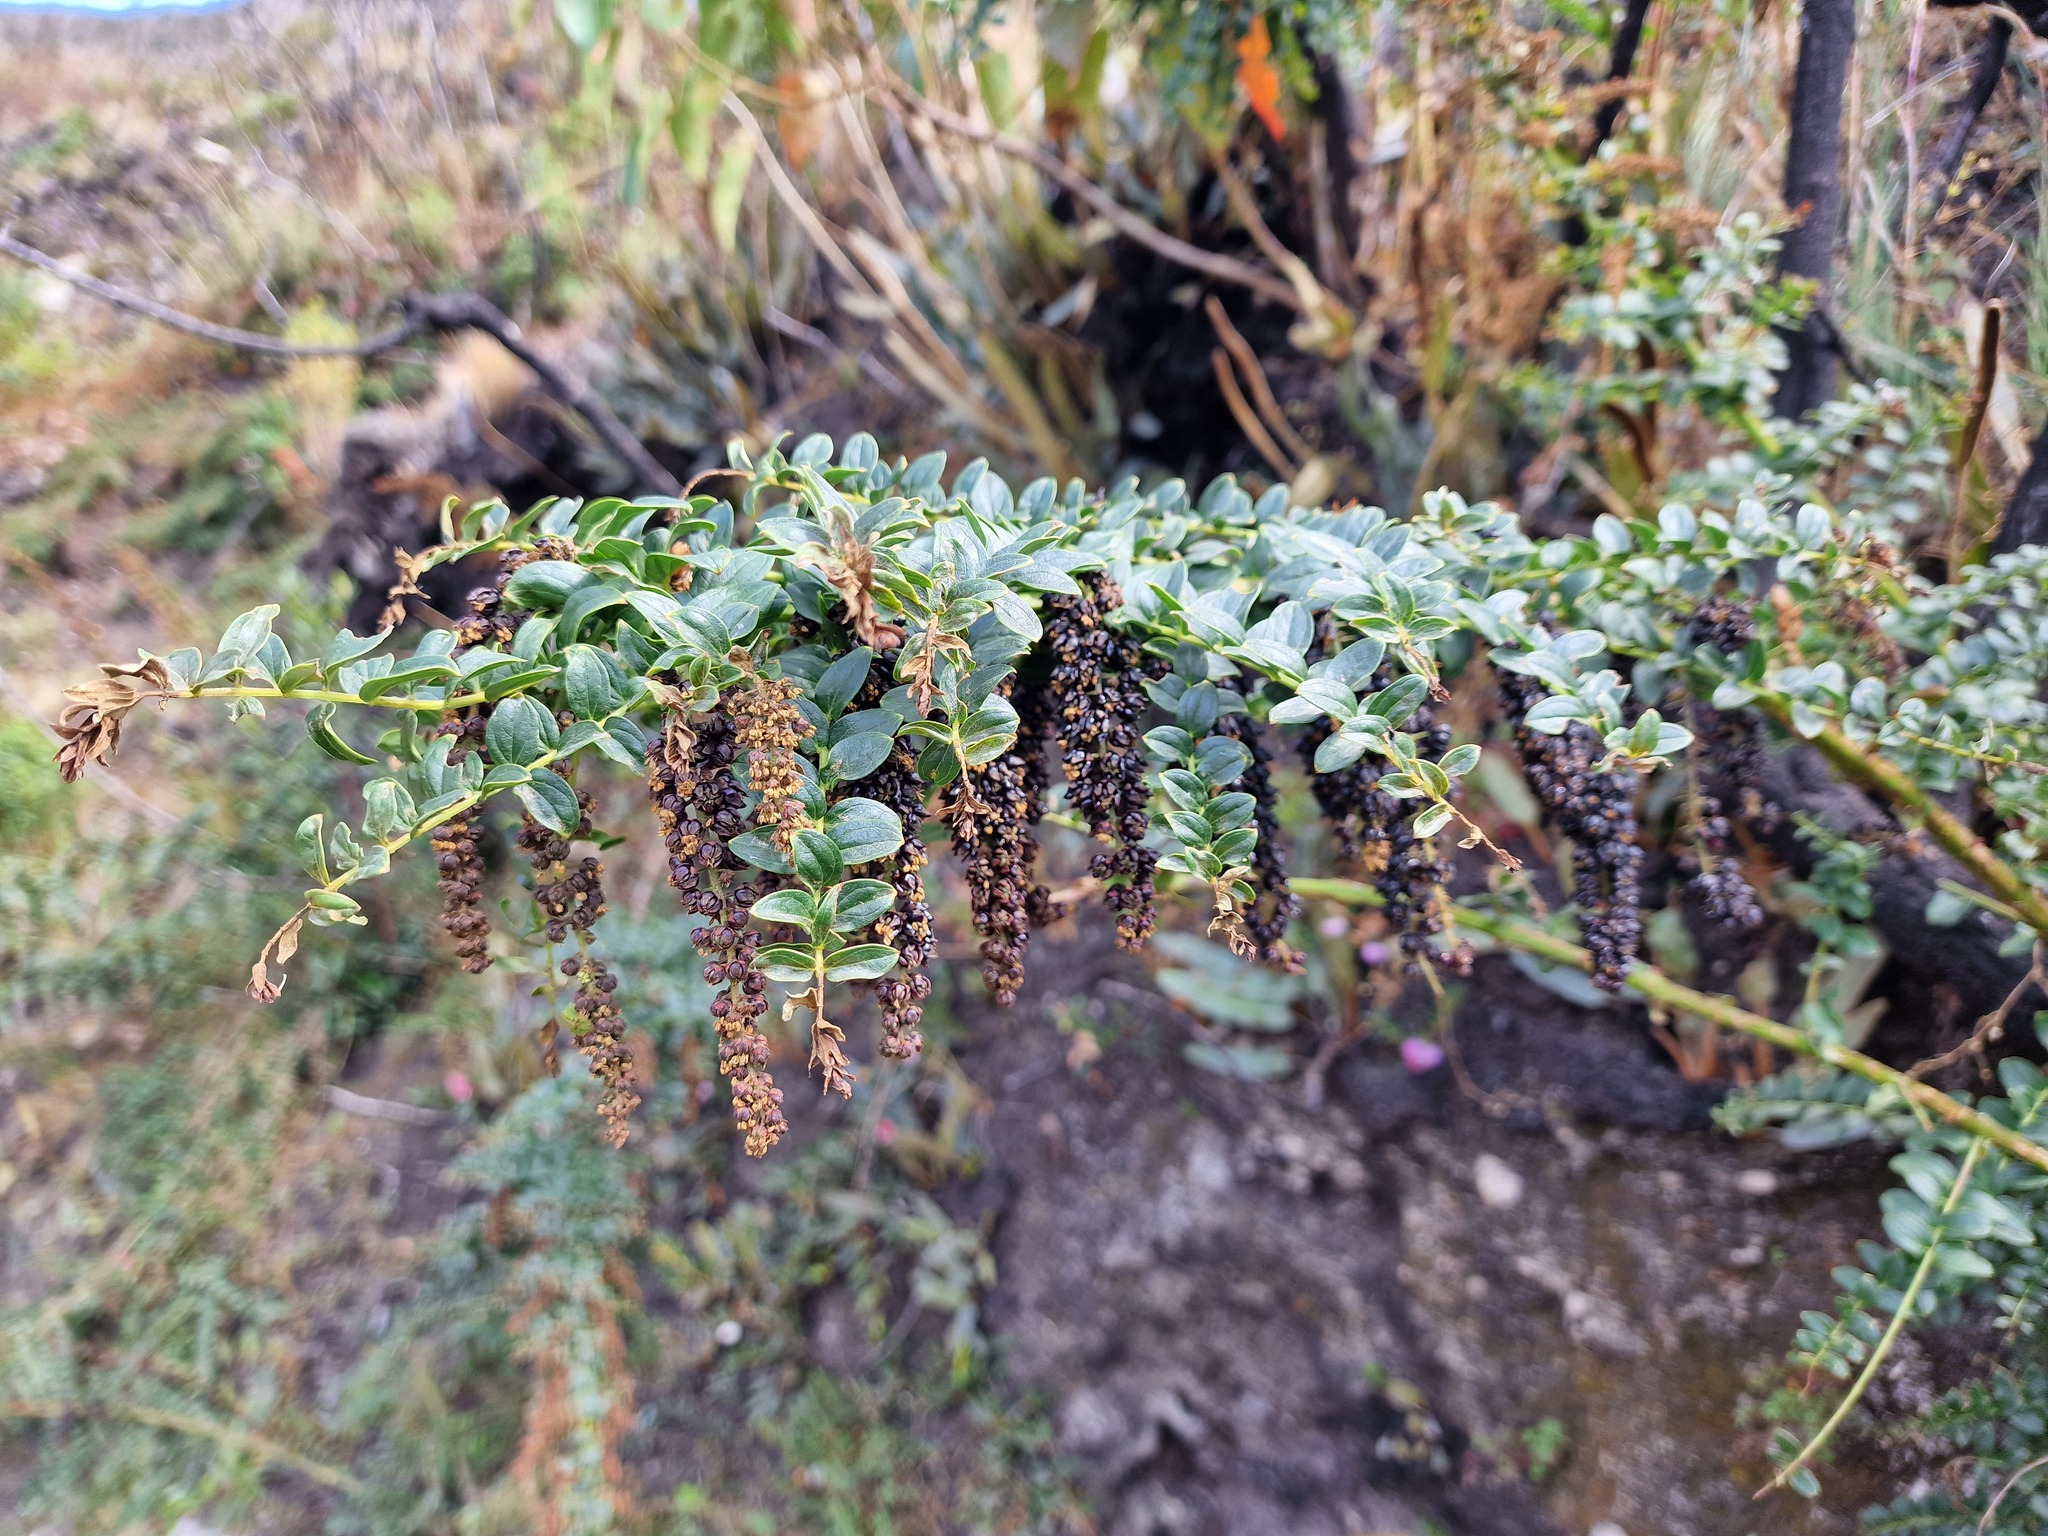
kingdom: Plantae
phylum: Tracheophyta
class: Magnoliopsida
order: Cucurbitales
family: Coriariaceae
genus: Coriaria
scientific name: Coriaria ruscifolia
